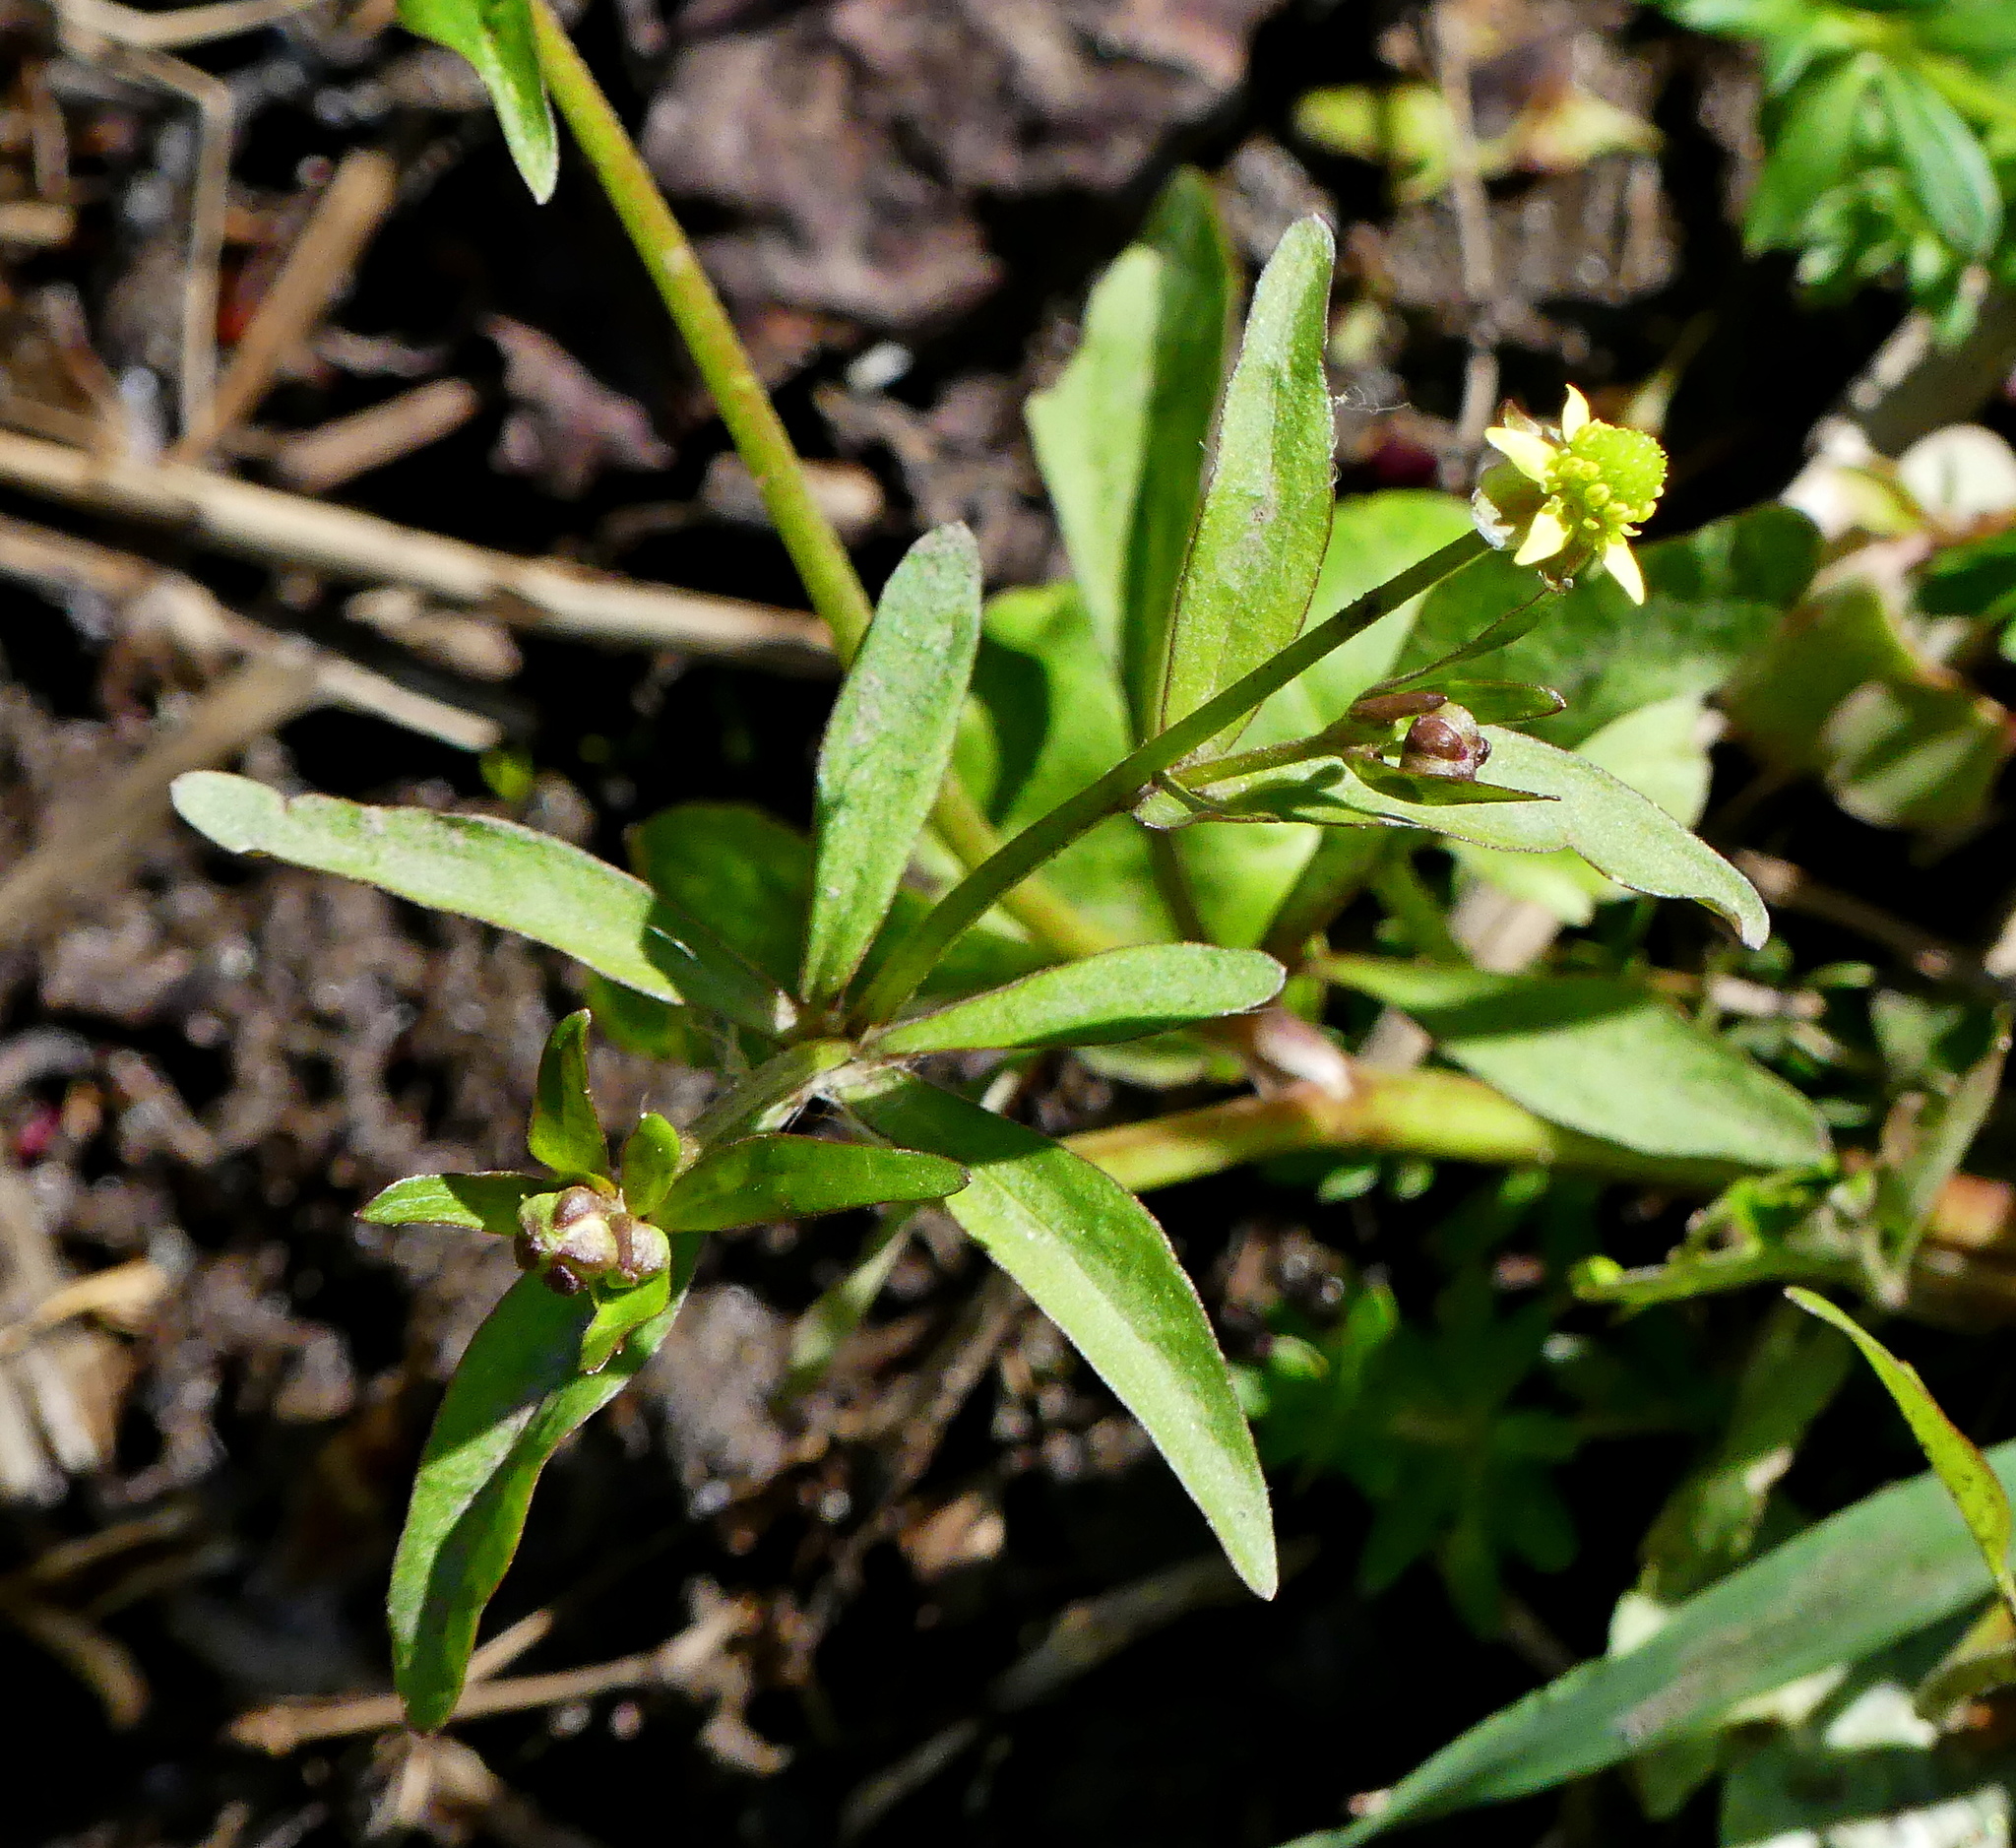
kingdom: Plantae
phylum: Tracheophyta
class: Magnoliopsida
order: Ranunculales
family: Ranunculaceae
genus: Ranunculus
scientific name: Ranunculus abortivus
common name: Early wood buttercup
